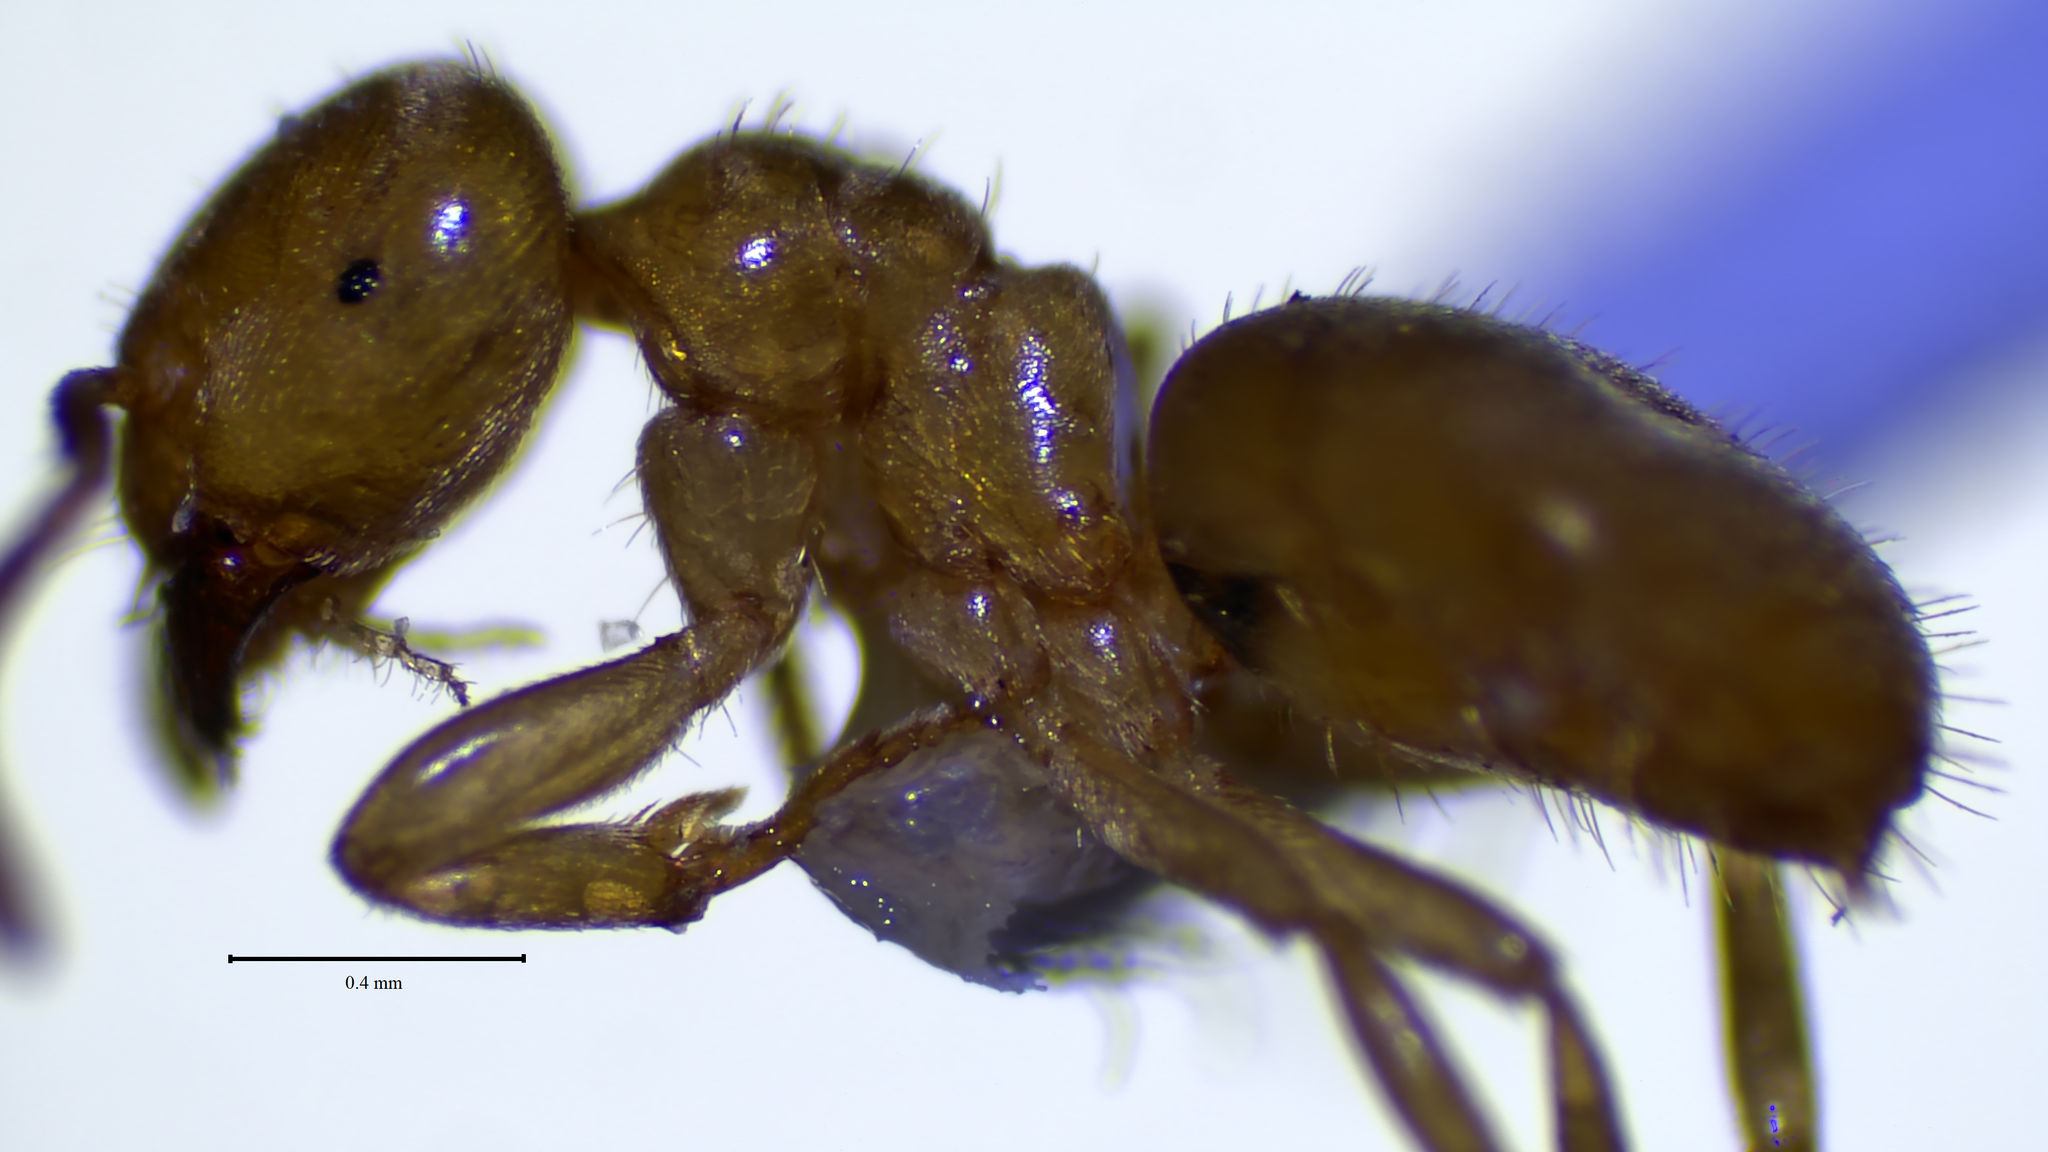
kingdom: Animalia
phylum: Arthropoda
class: Insecta
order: Hymenoptera
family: Formicidae
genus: Lasius
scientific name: Lasius
